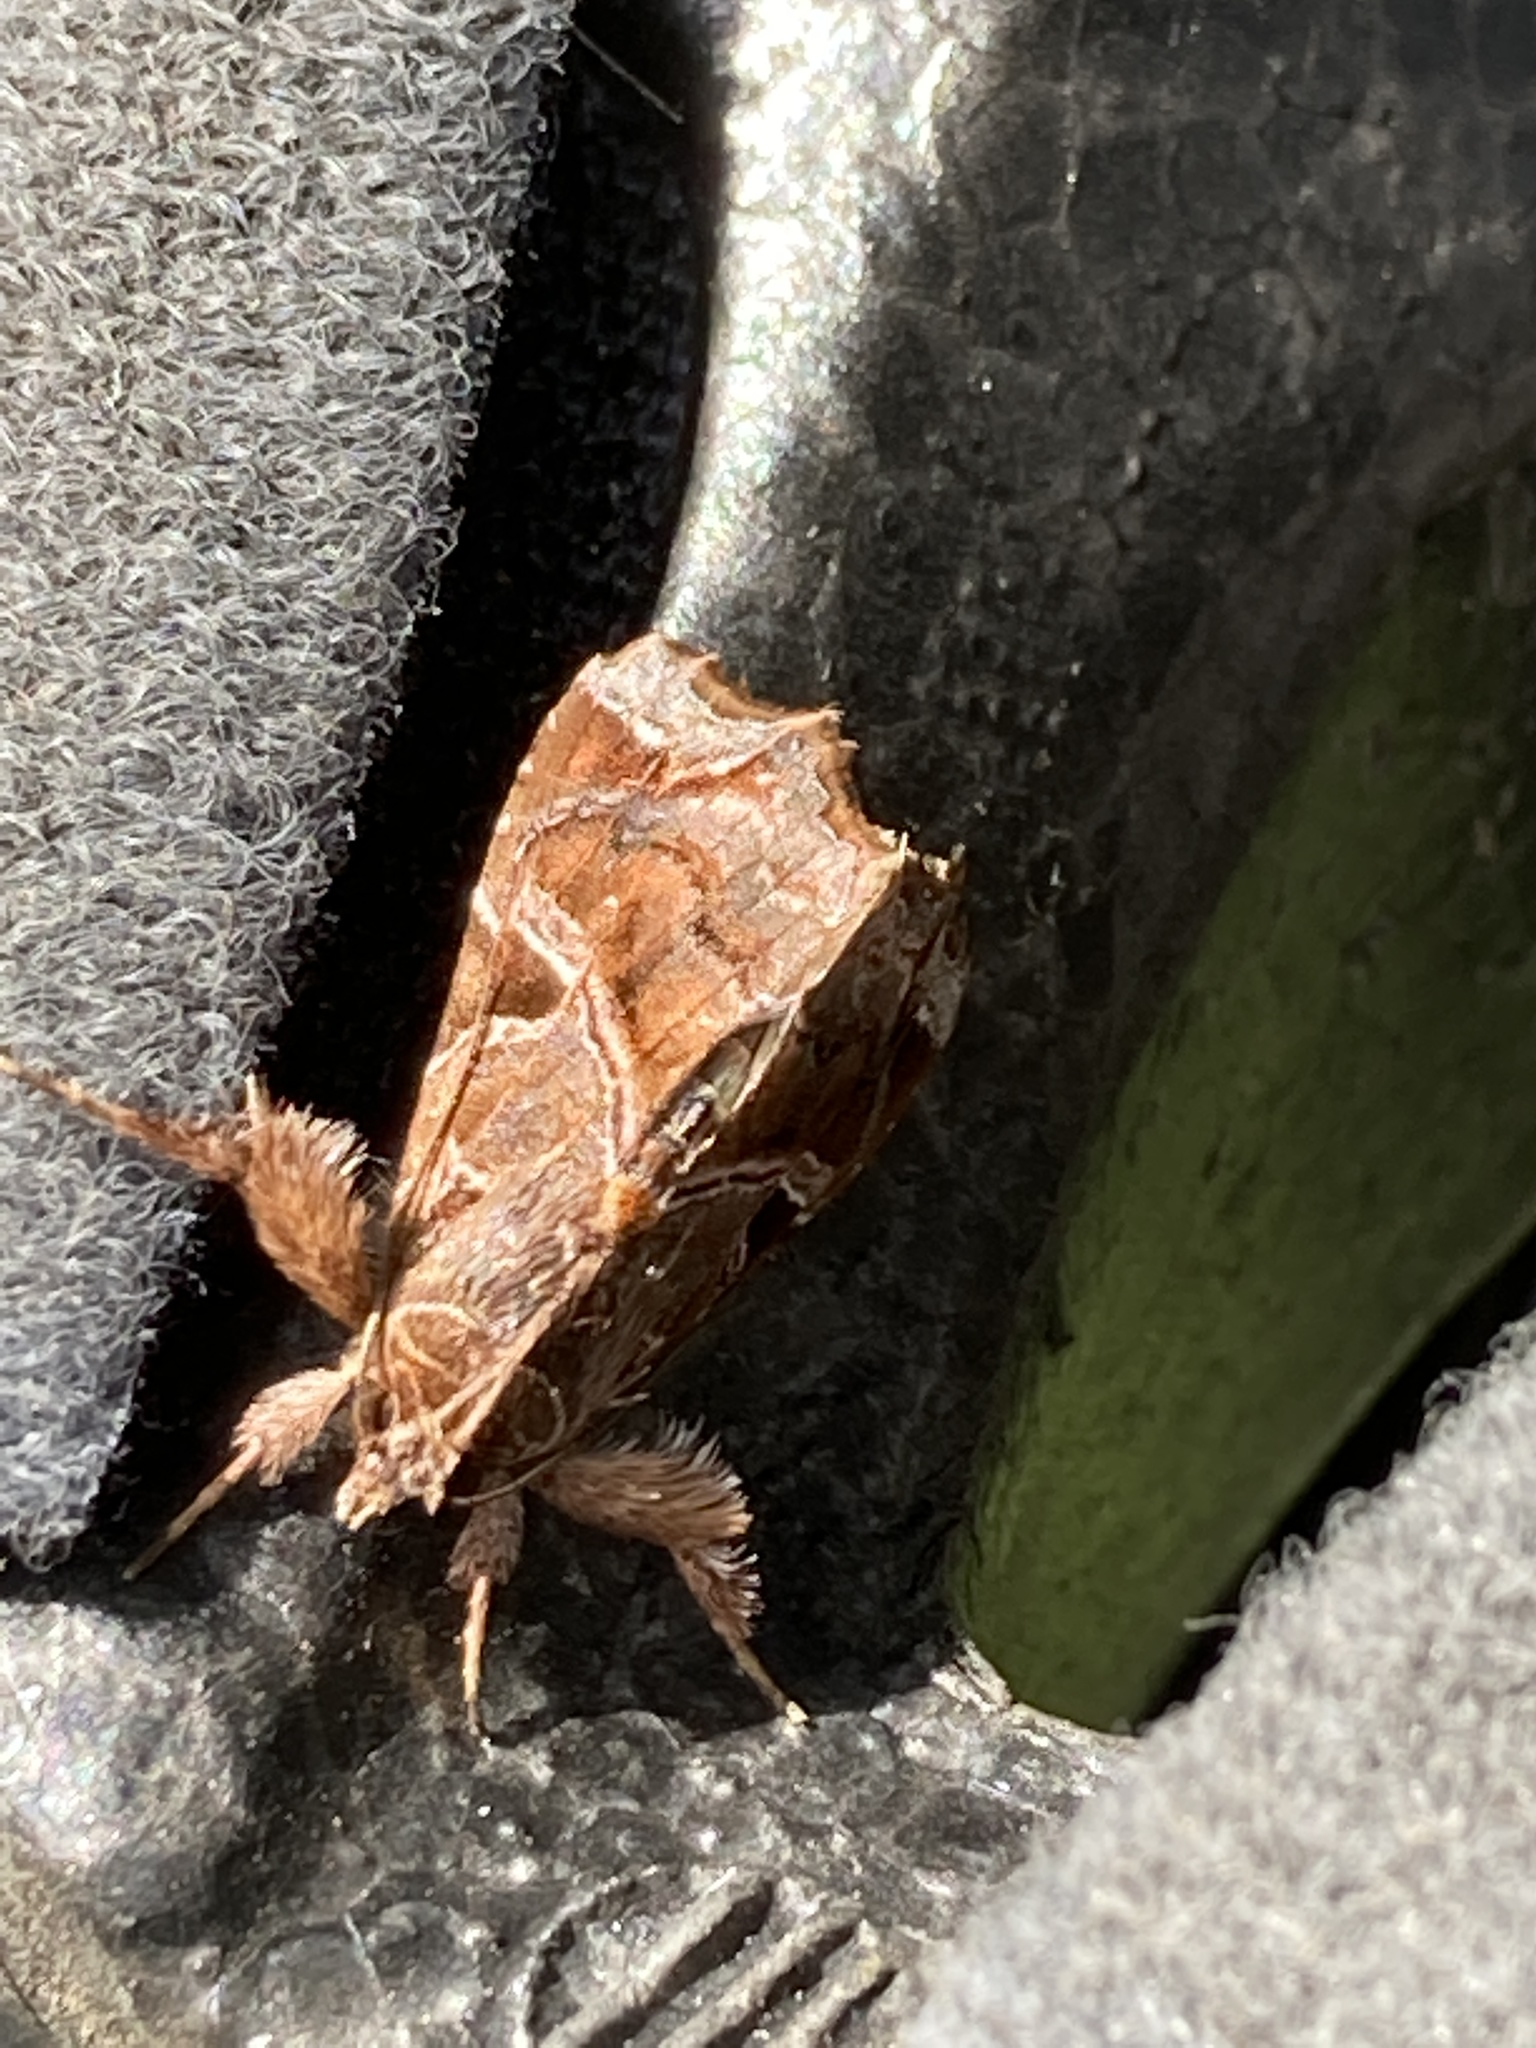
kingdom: Animalia
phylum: Arthropoda
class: Insecta
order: Lepidoptera
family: Noctuidae
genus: Callopistria
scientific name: Callopistria floridensis
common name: Florida fern moth
